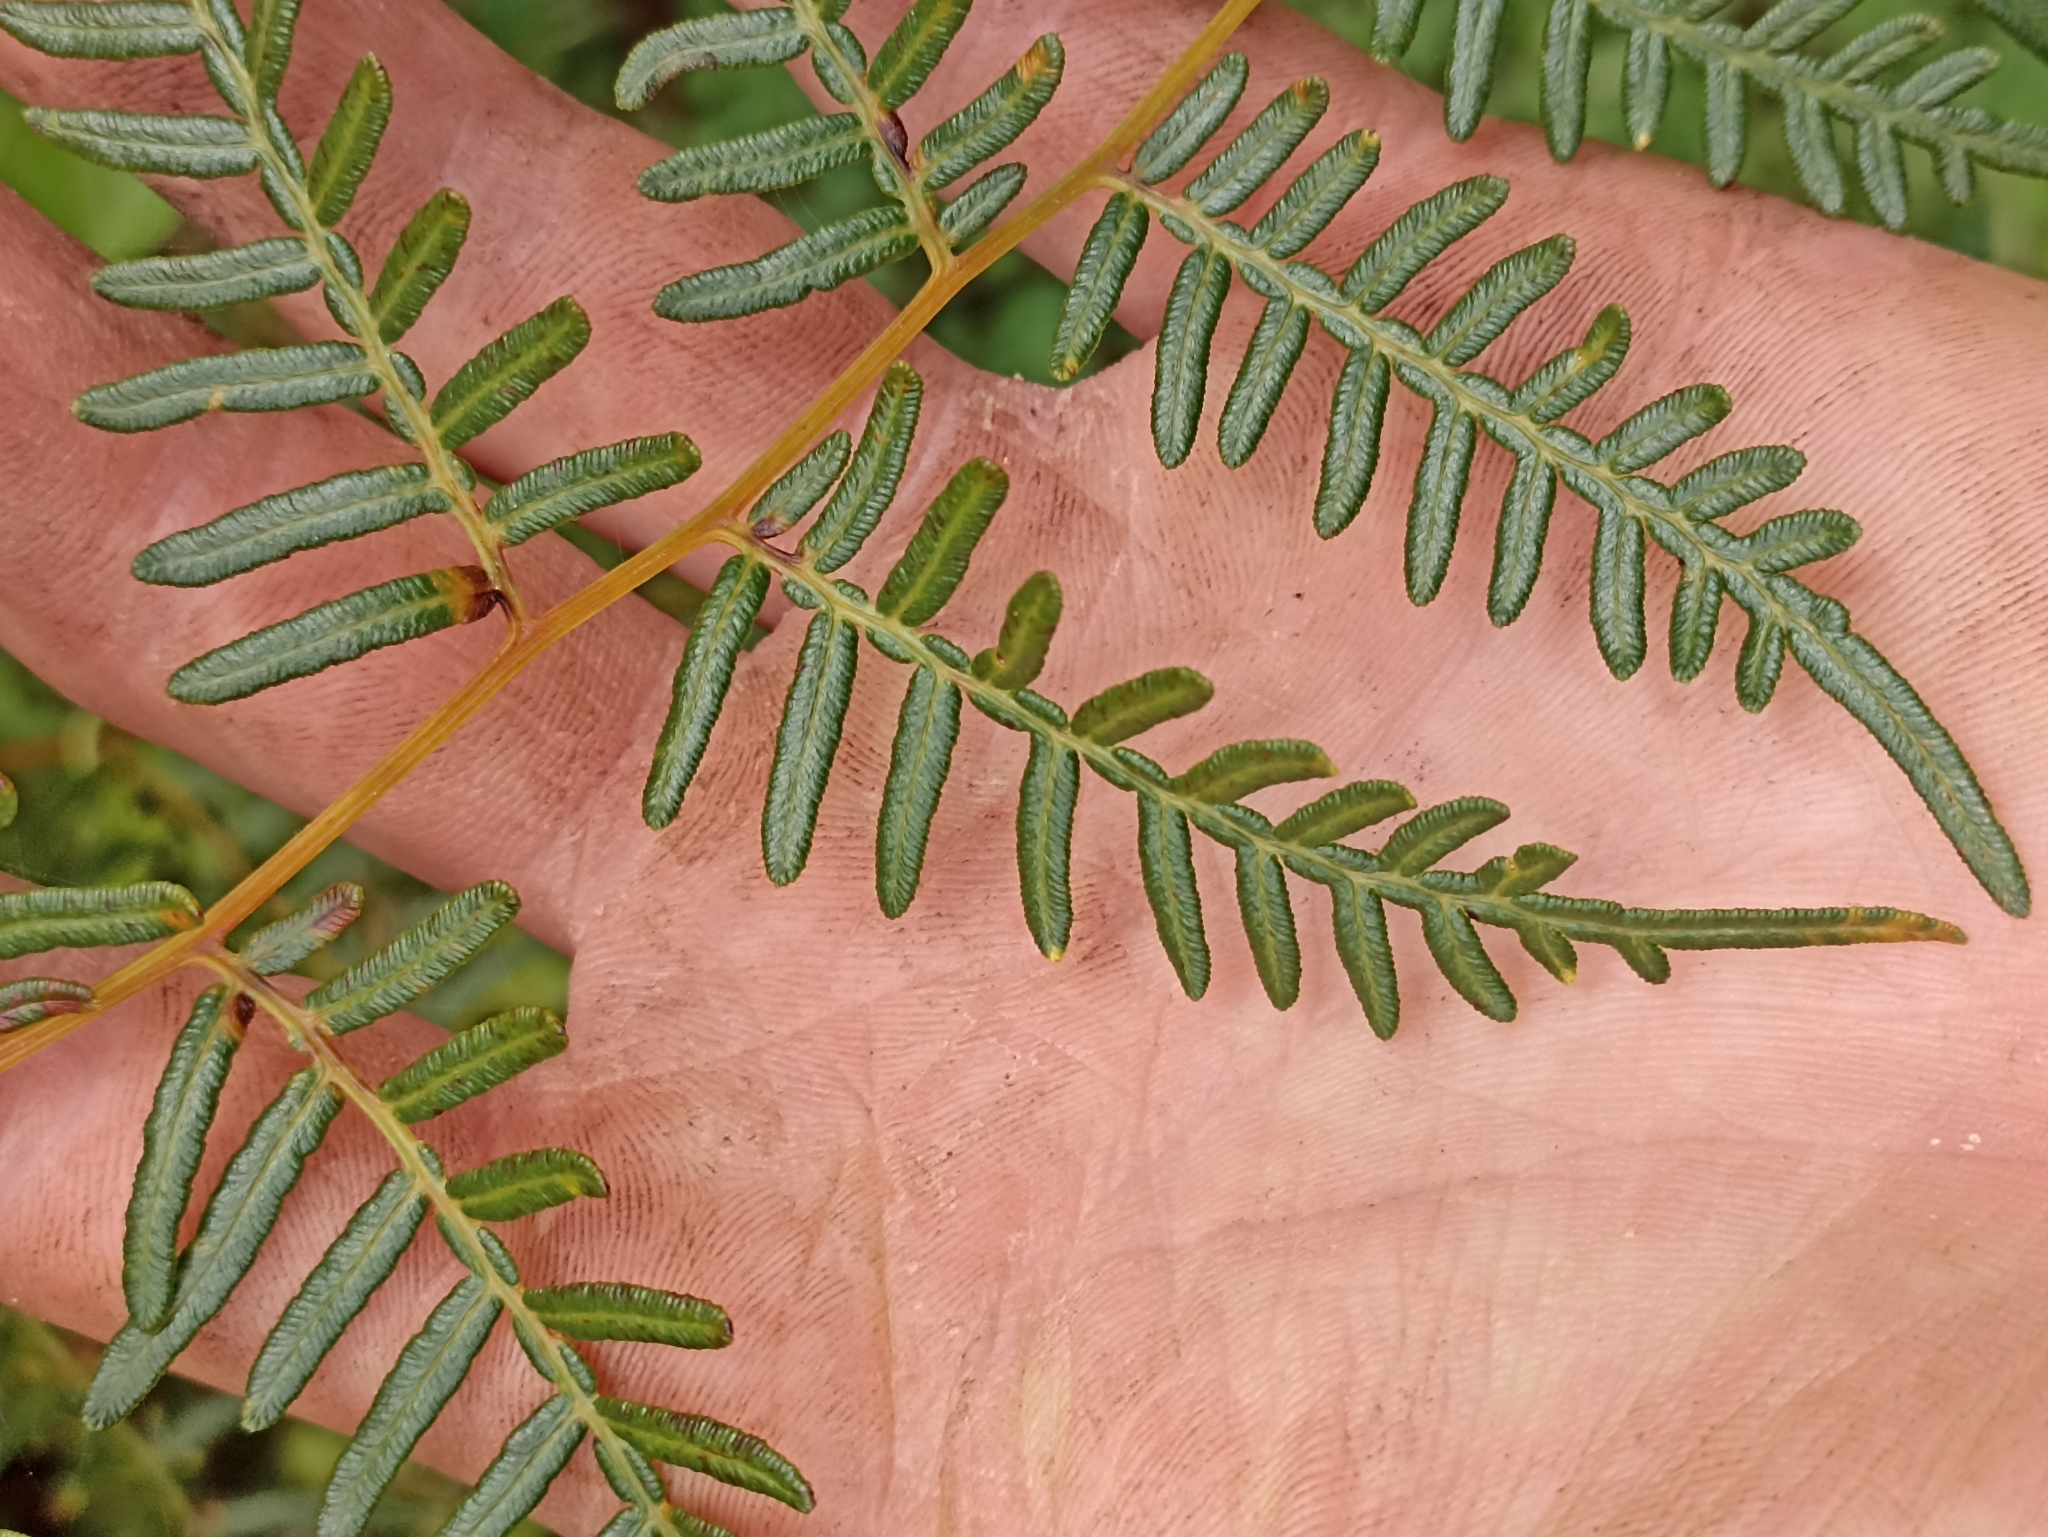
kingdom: Plantae
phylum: Tracheophyta
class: Polypodiopsida
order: Polypodiales
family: Dennstaedtiaceae
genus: Pteridium
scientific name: Pteridium esculentum
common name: Bracken fern
